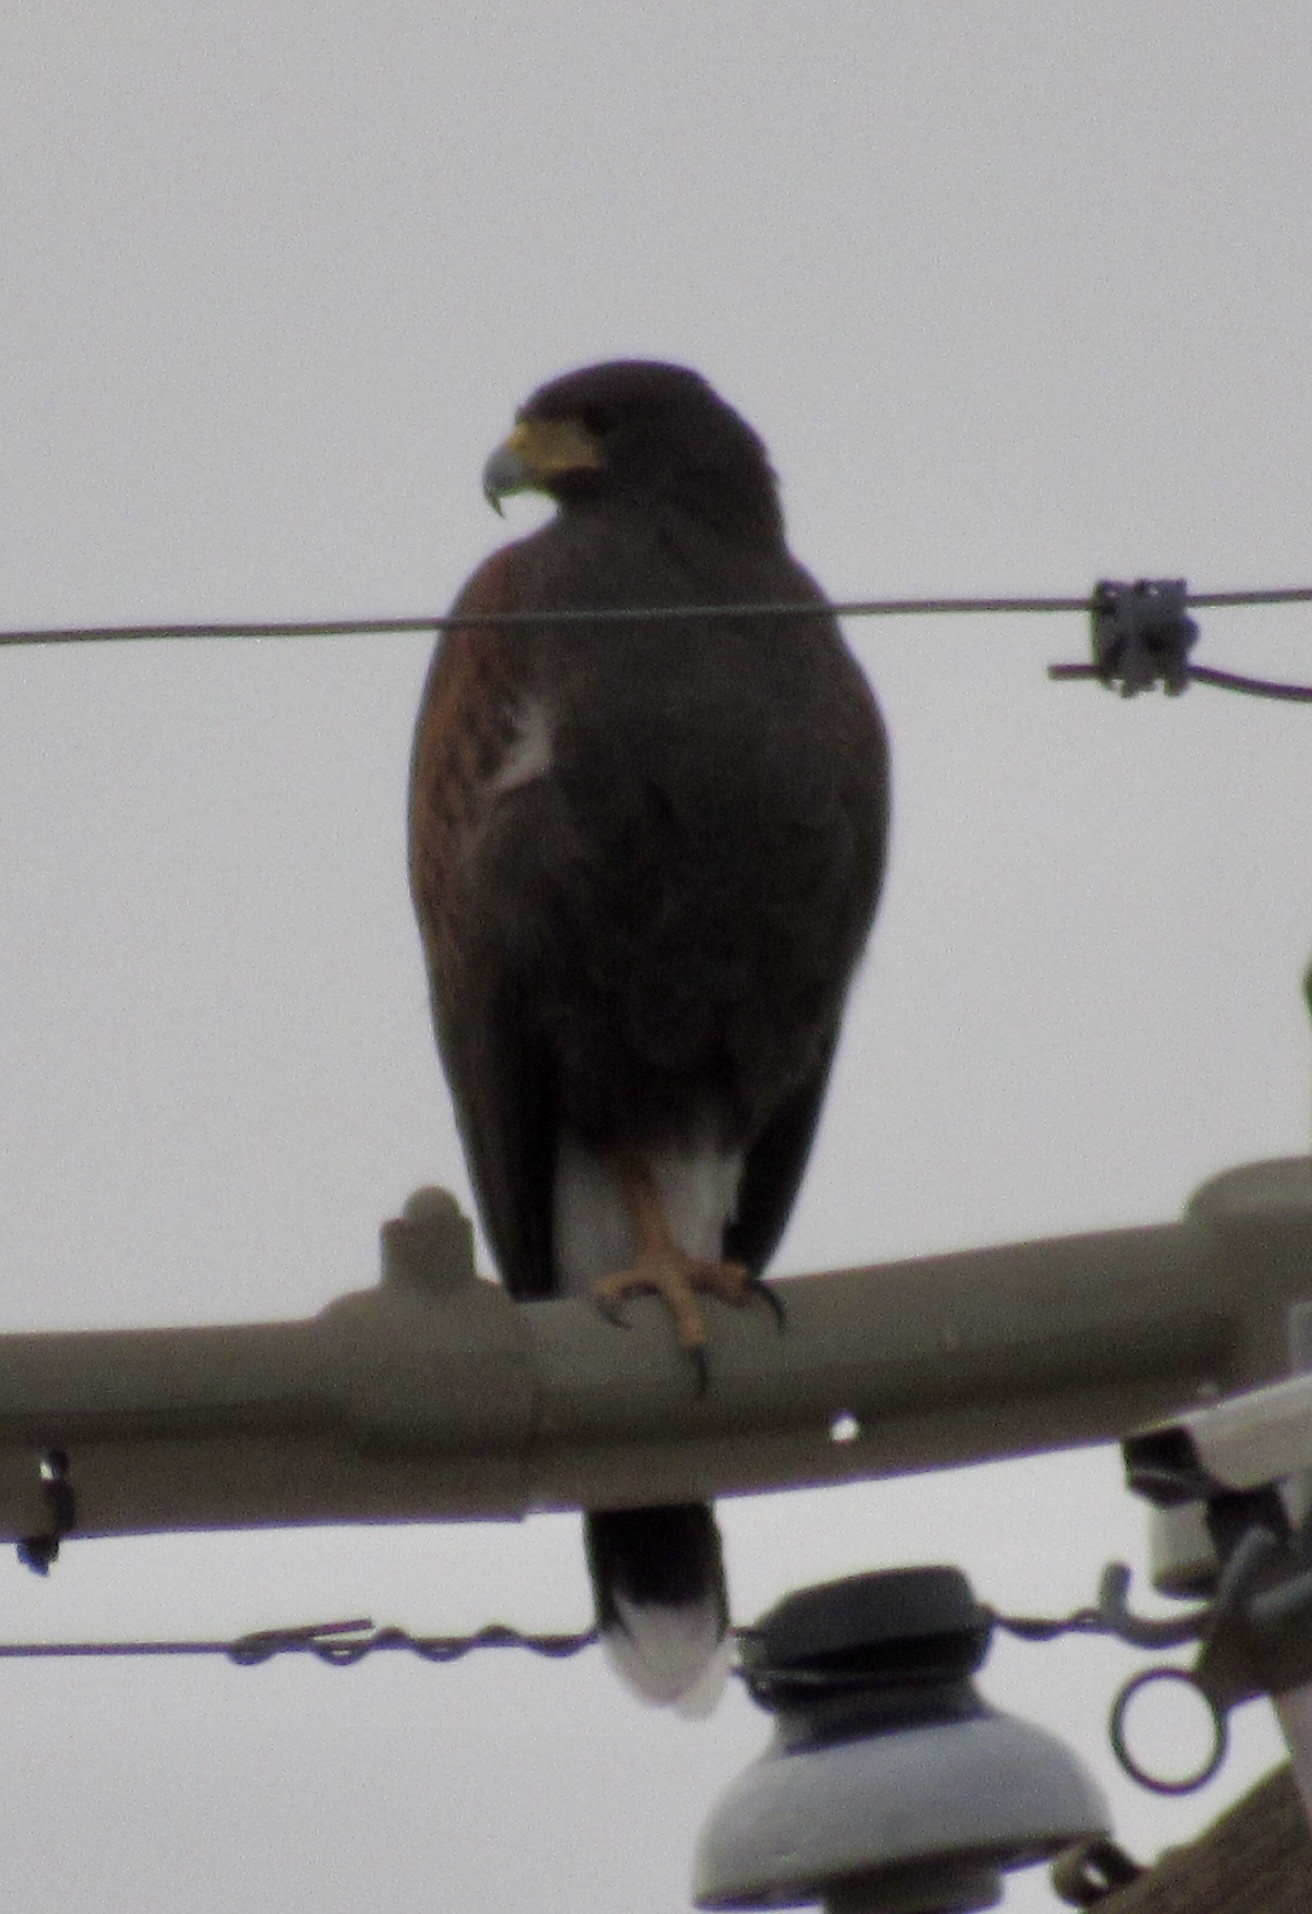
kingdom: Animalia
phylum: Chordata
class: Aves
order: Accipitriformes
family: Accipitridae
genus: Parabuteo
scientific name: Parabuteo unicinctus
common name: Harris's hawk
